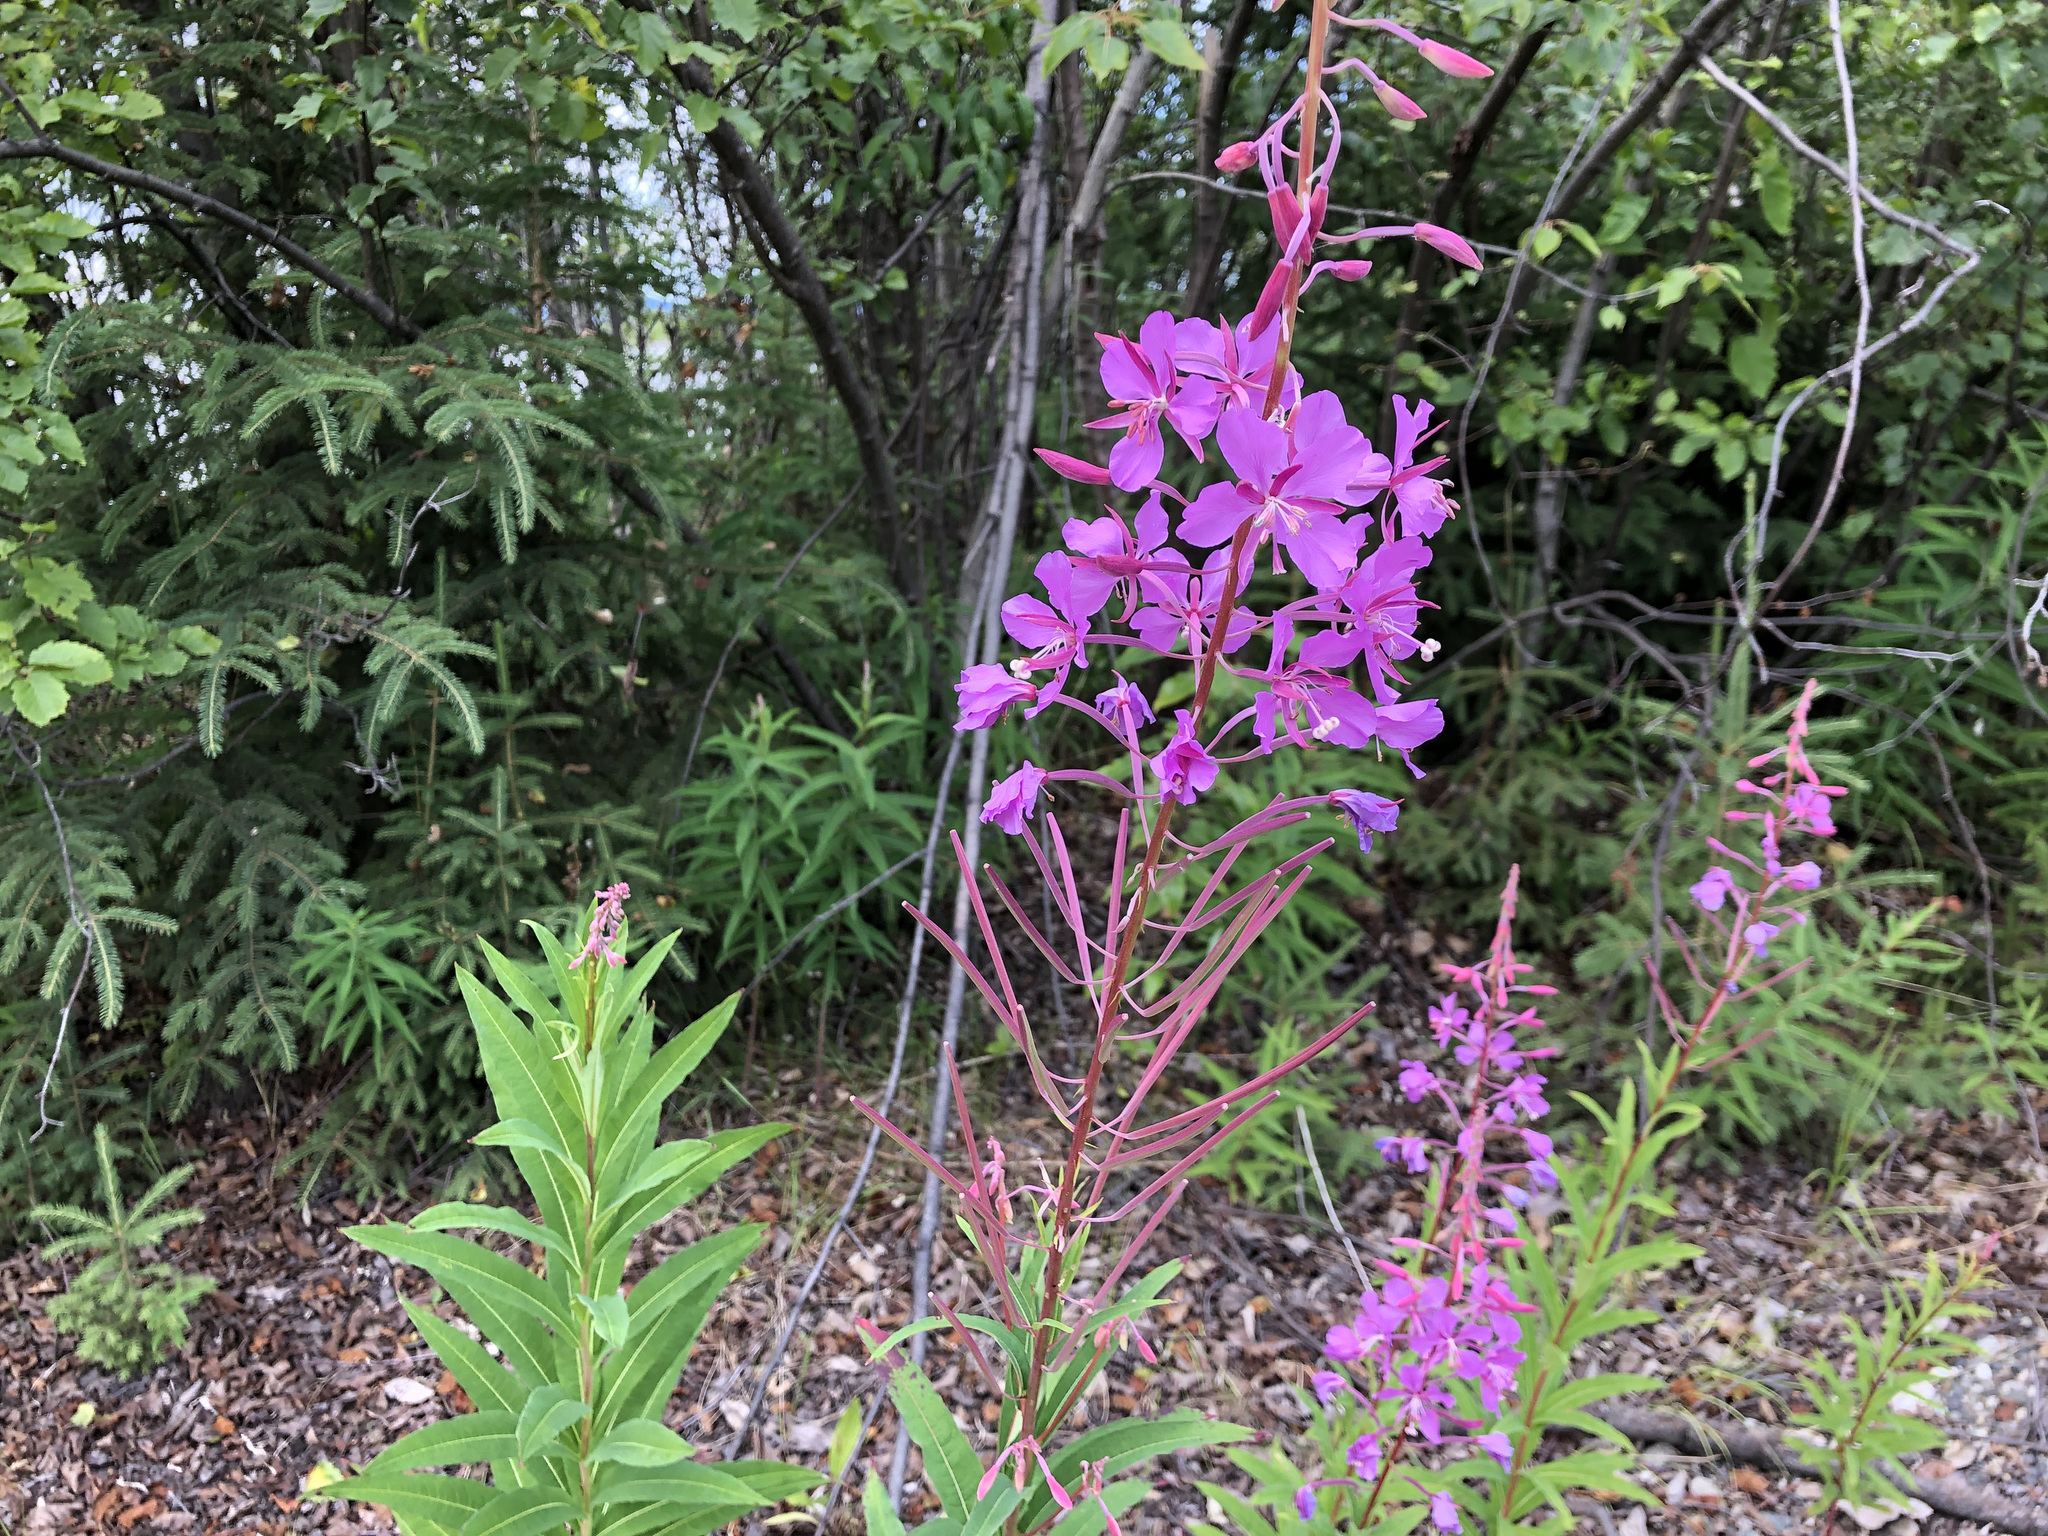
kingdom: Plantae
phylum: Tracheophyta
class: Magnoliopsida
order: Myrtales
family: Onagraceae
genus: Chamaenerion
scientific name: Chamaenerion angustifolium
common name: Fireweed
